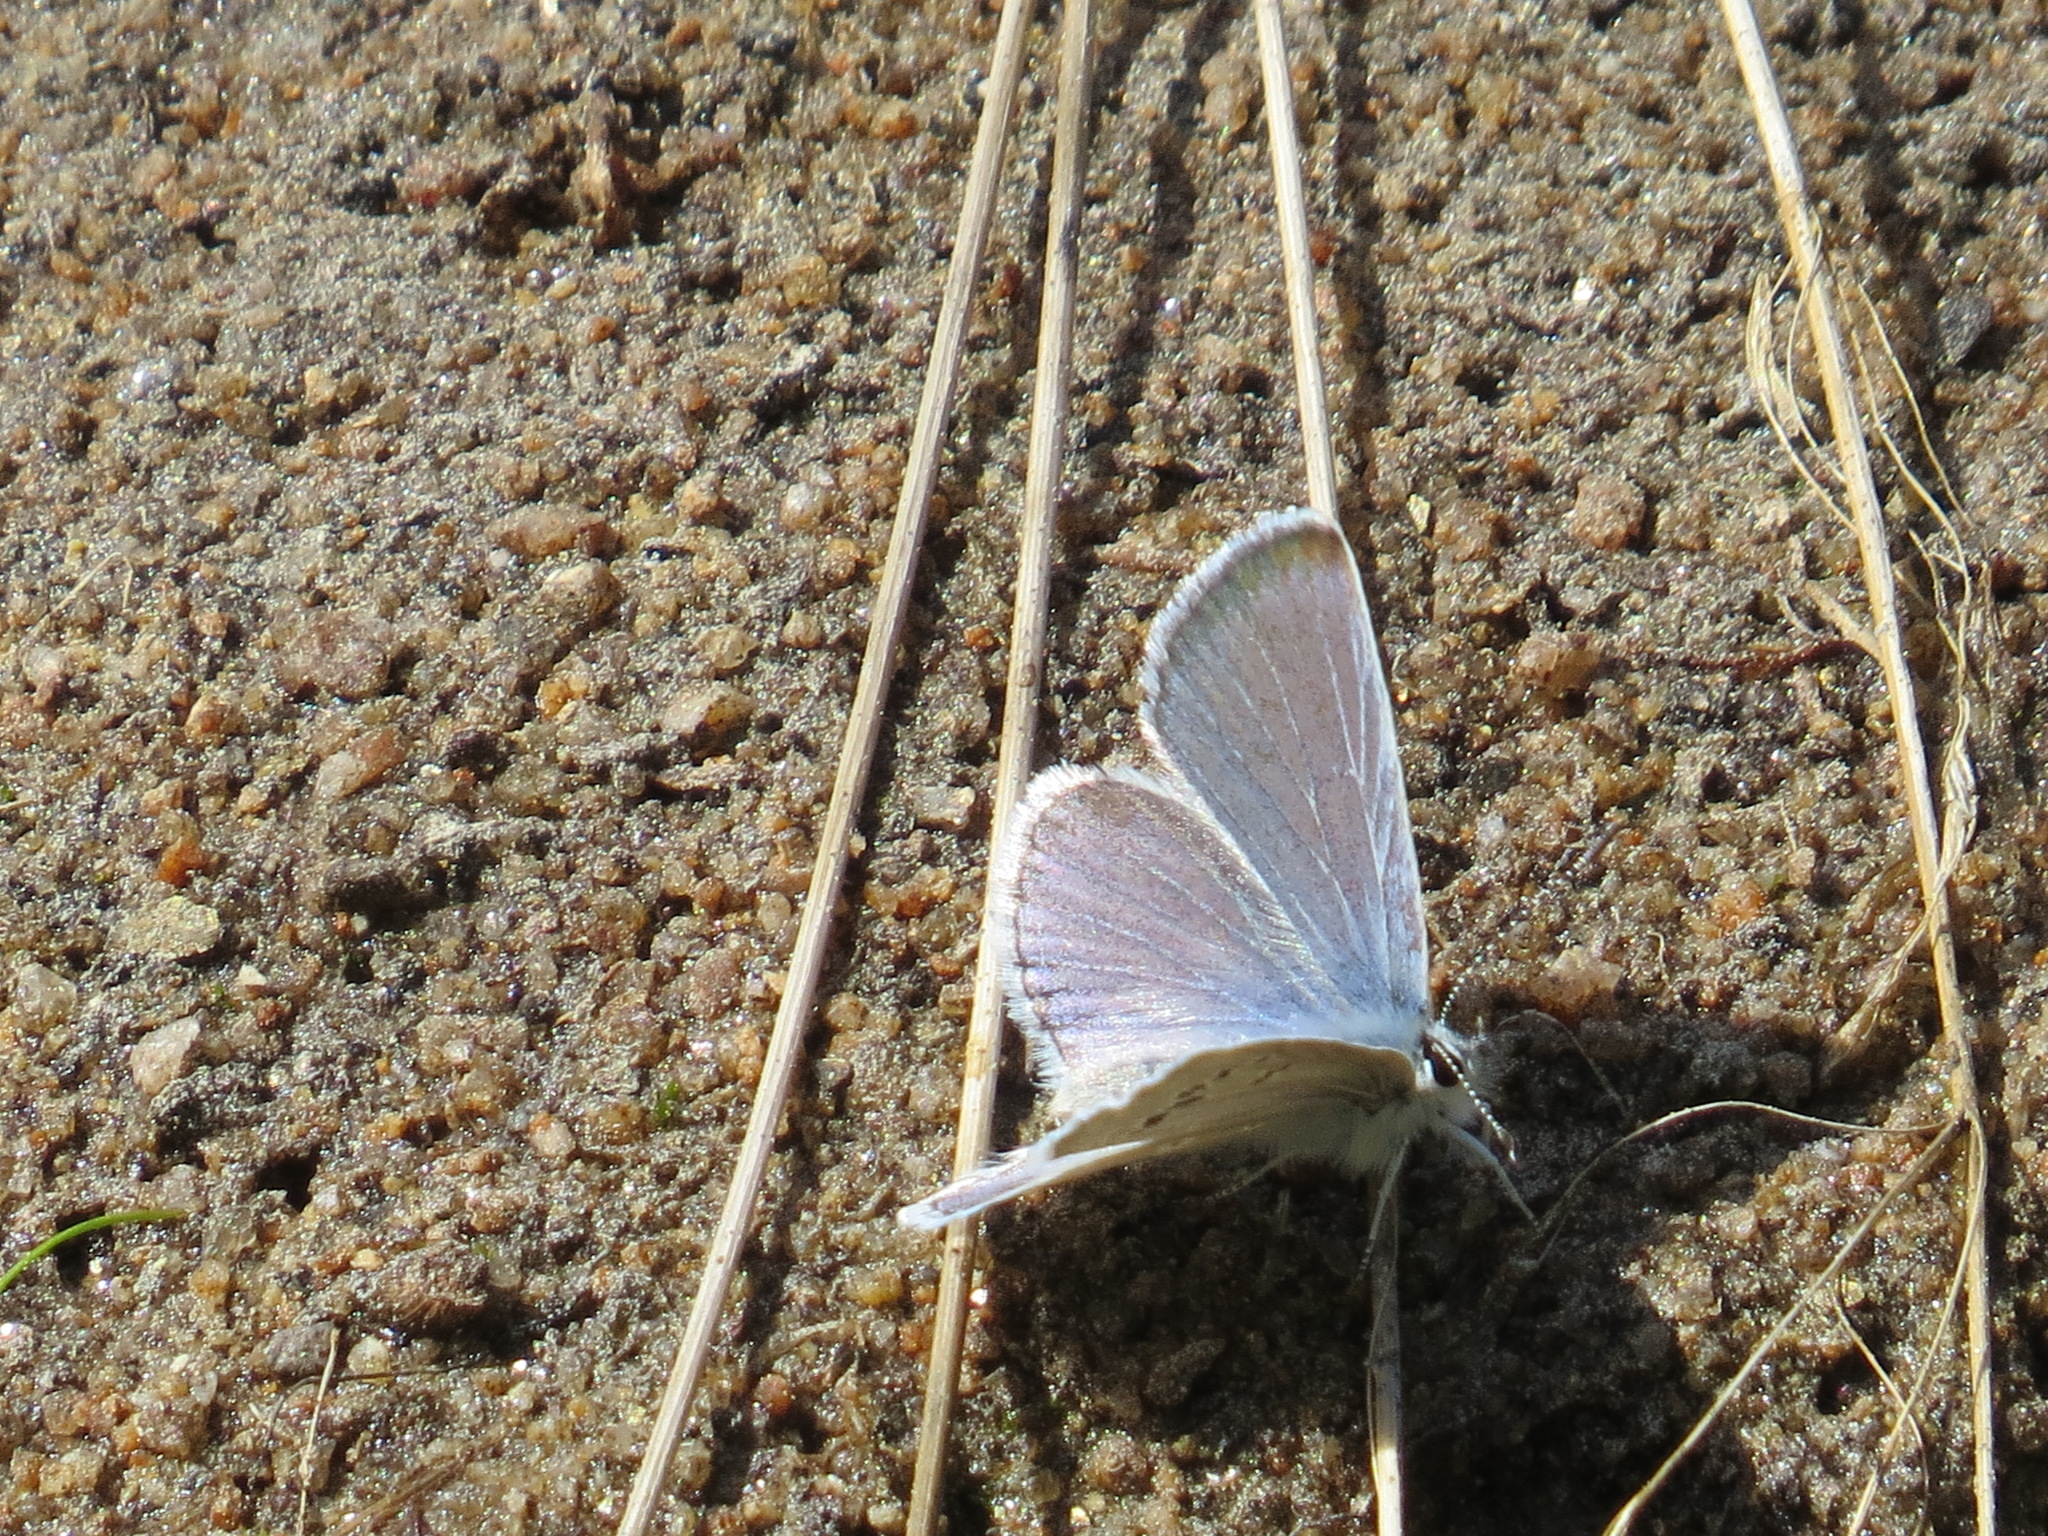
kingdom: Animalia
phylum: Arthropoda
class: Insecta
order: Lepidoptera
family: Lycaenidae
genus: Icaricia
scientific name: Icaricia icarioides
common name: Boisduval's blue
